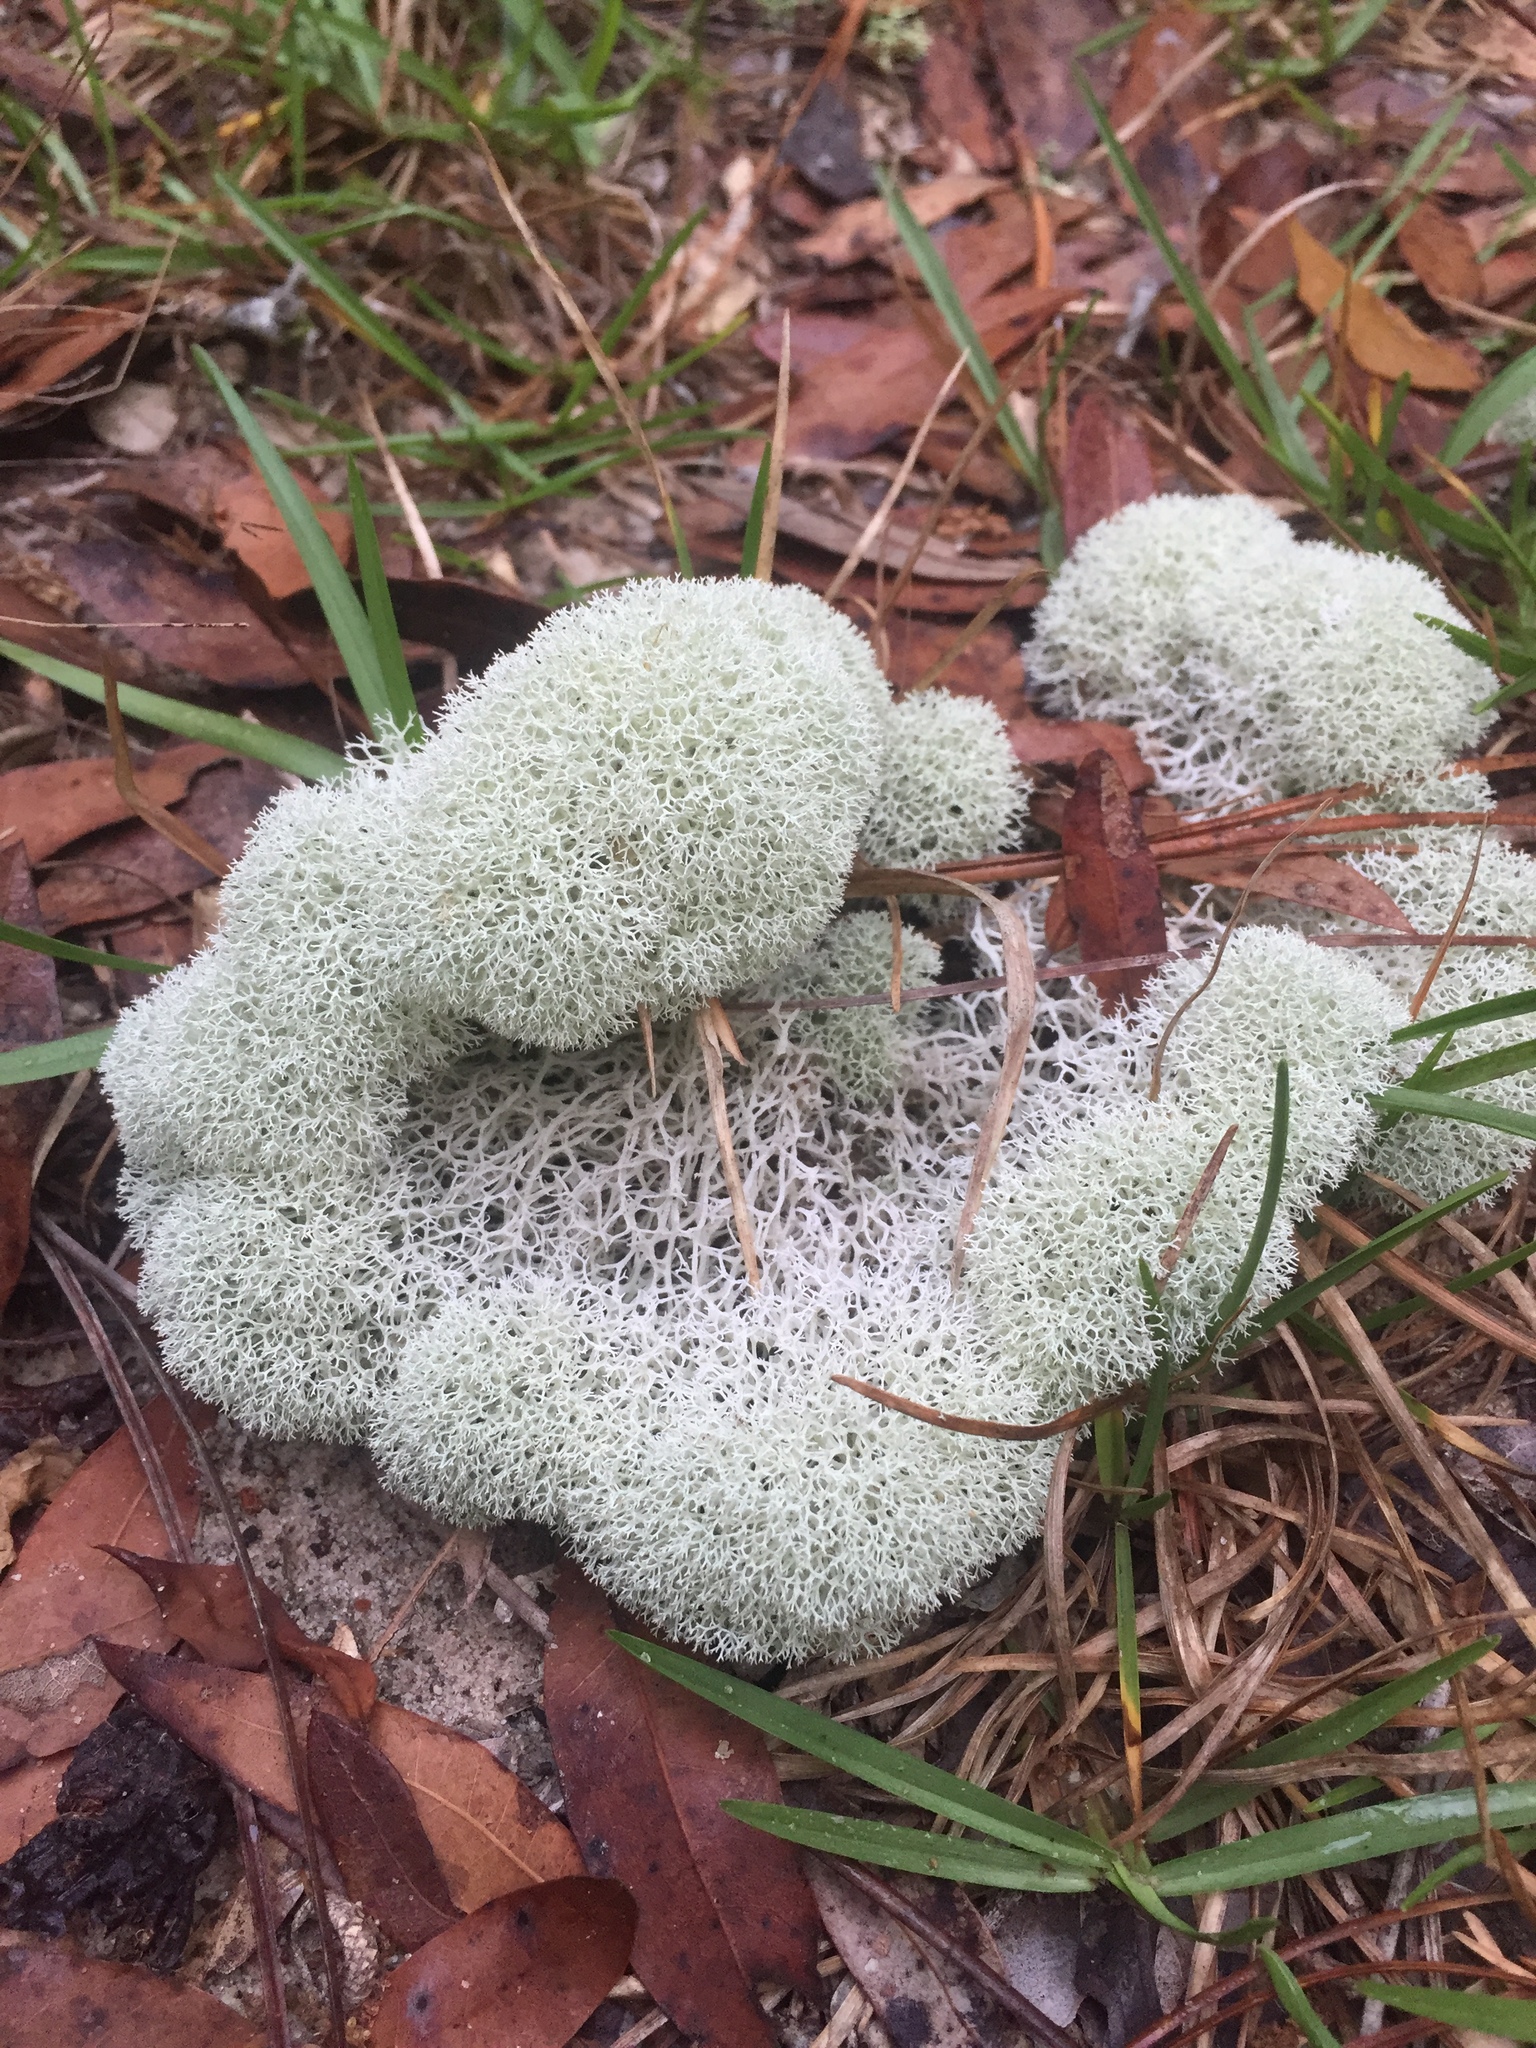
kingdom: Fungi
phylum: Ascomycota
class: Lecanoromycetes
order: Lecanorales
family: Cladoniaceae
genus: Cladonia
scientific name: Cladonia evansii
